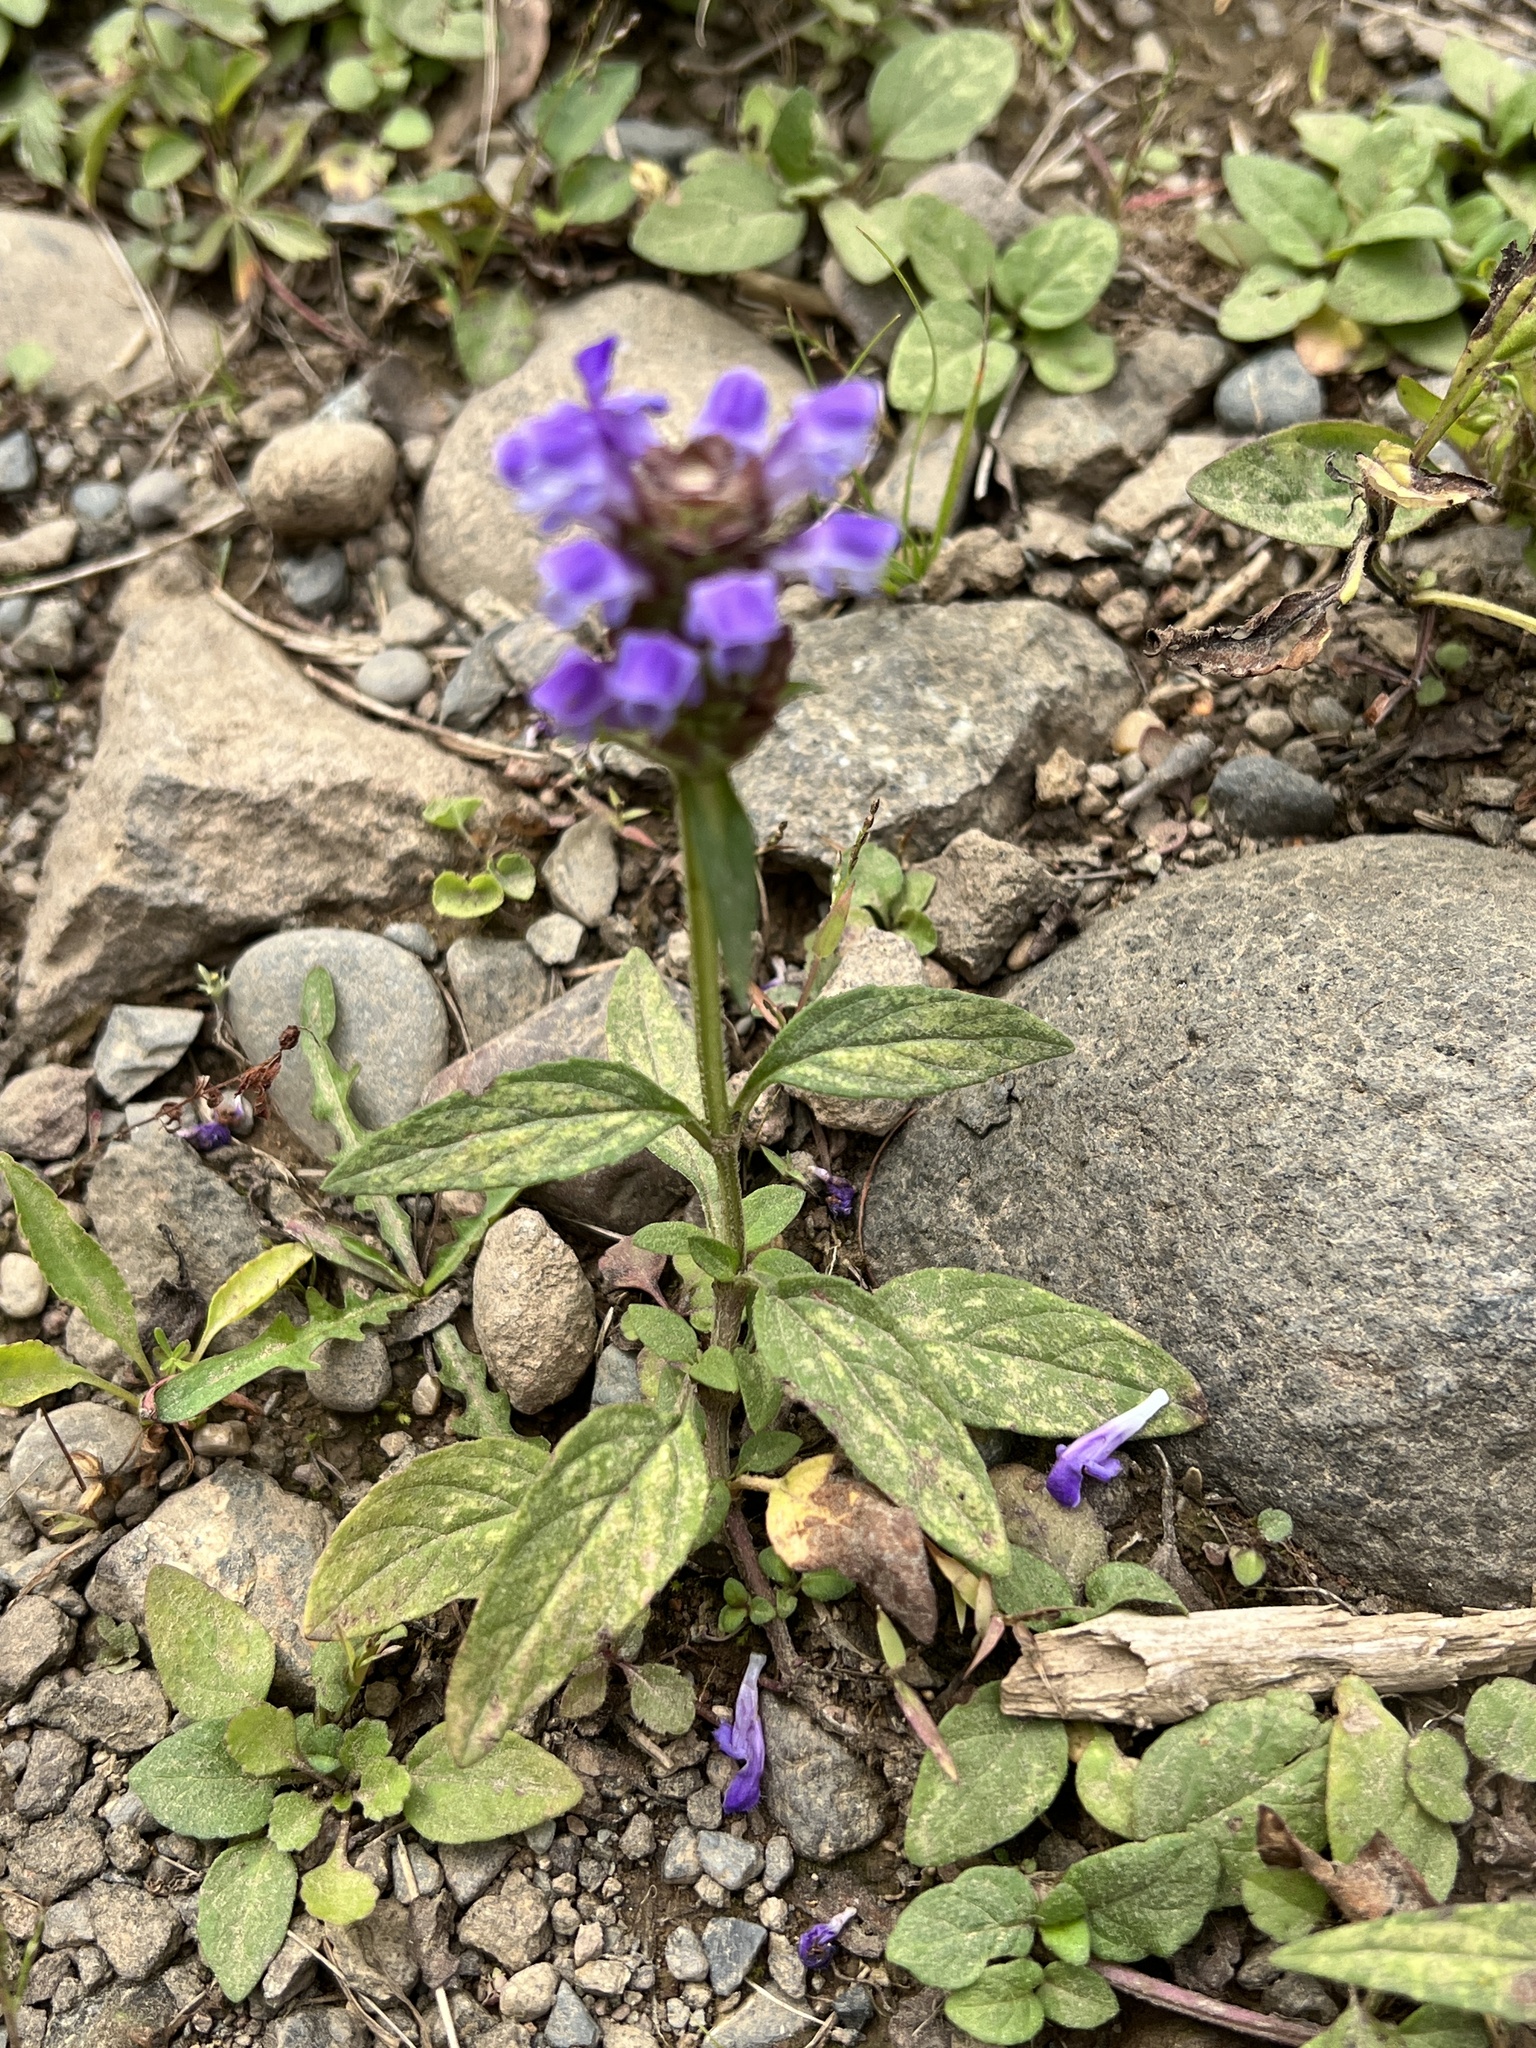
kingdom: Plantae
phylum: Tracheophyta
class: Magnoliopsida
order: Lamiales
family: Lamiaceae
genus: Prunella
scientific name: Prunella vulgaris
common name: Heal-all
